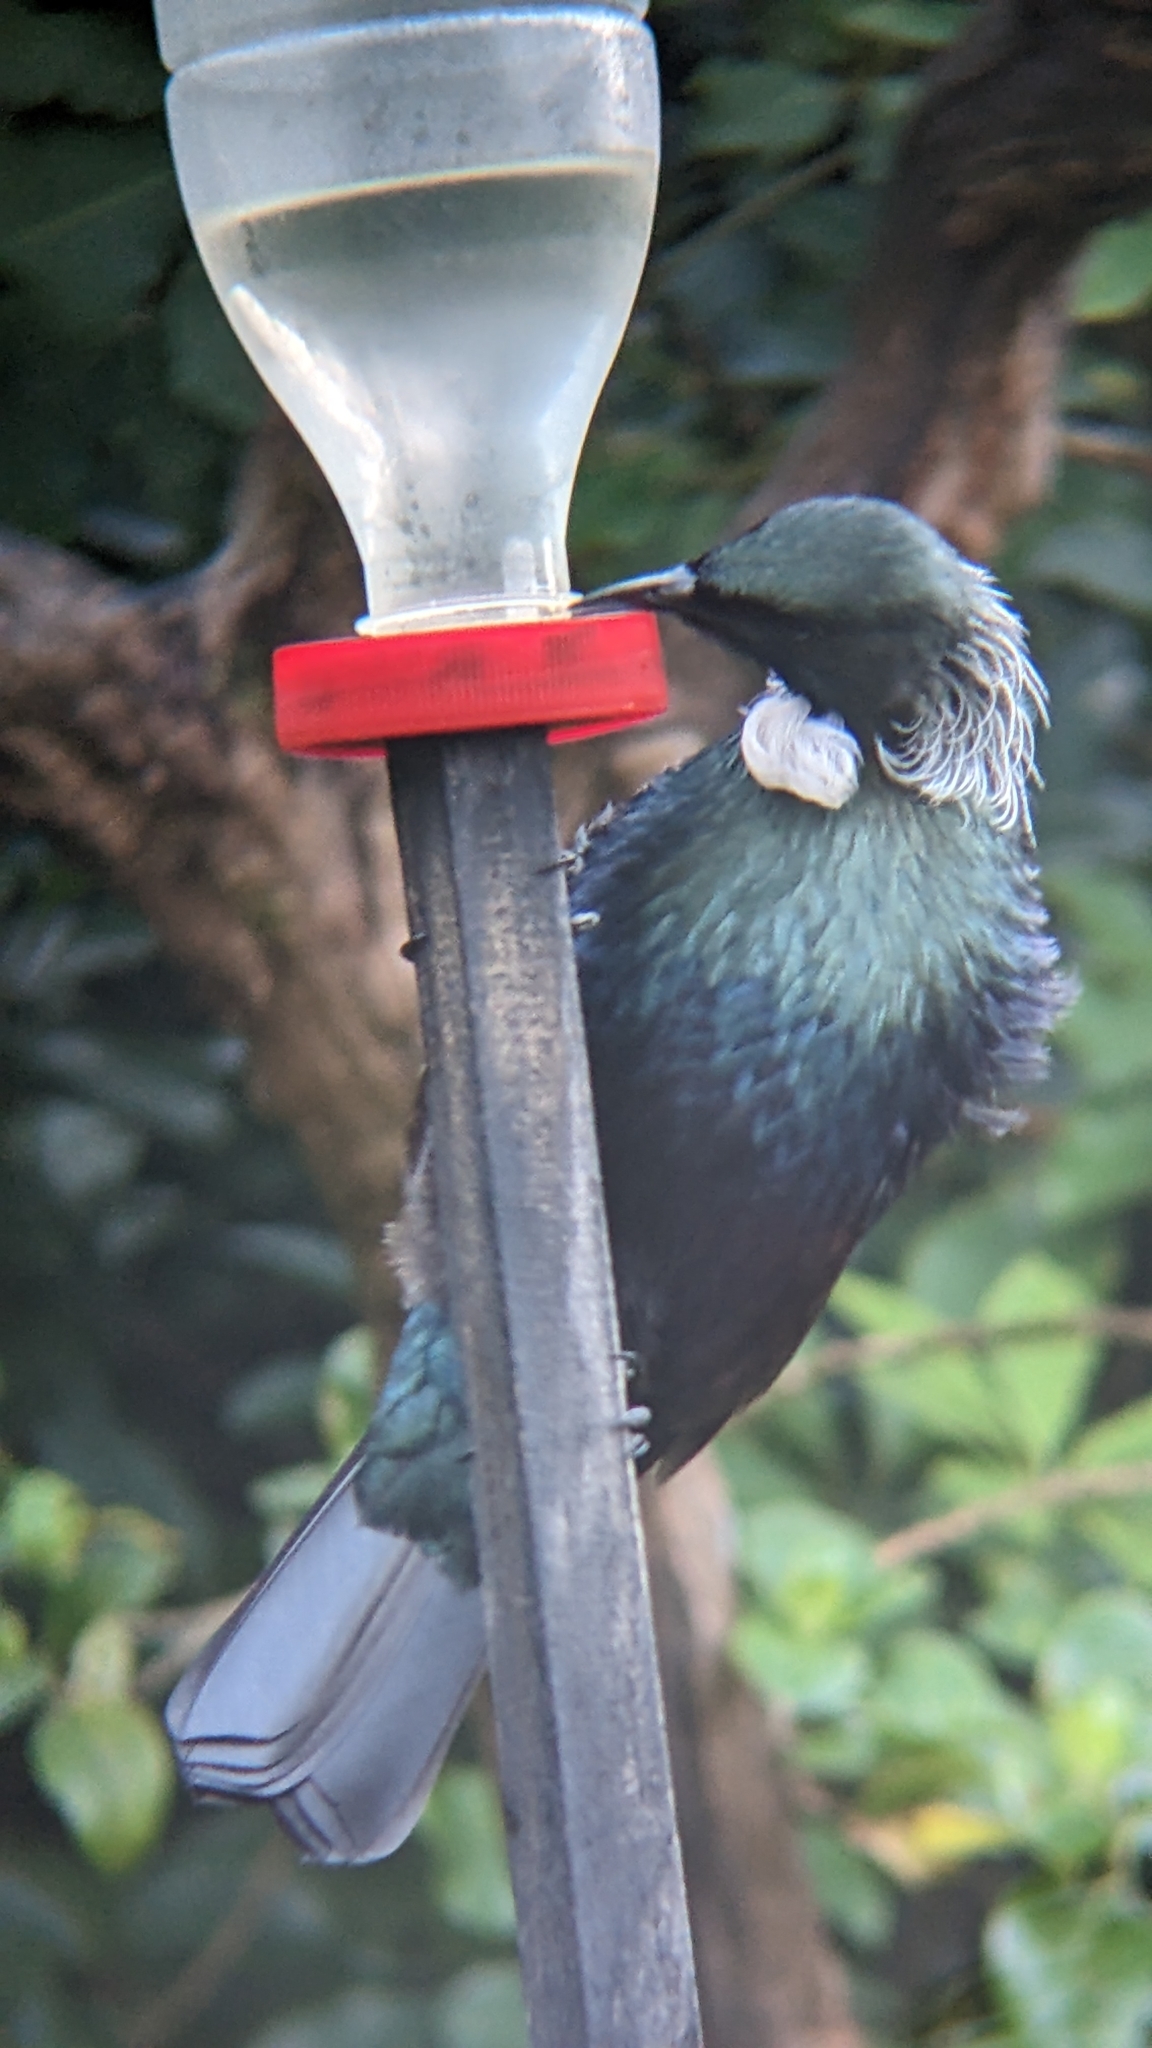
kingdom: Animalia
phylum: Chordata
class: Aves
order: Passeriformes
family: Meliphagidae
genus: Prosthemadera
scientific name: Prosthemadera novaeseelandiae
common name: Tui
